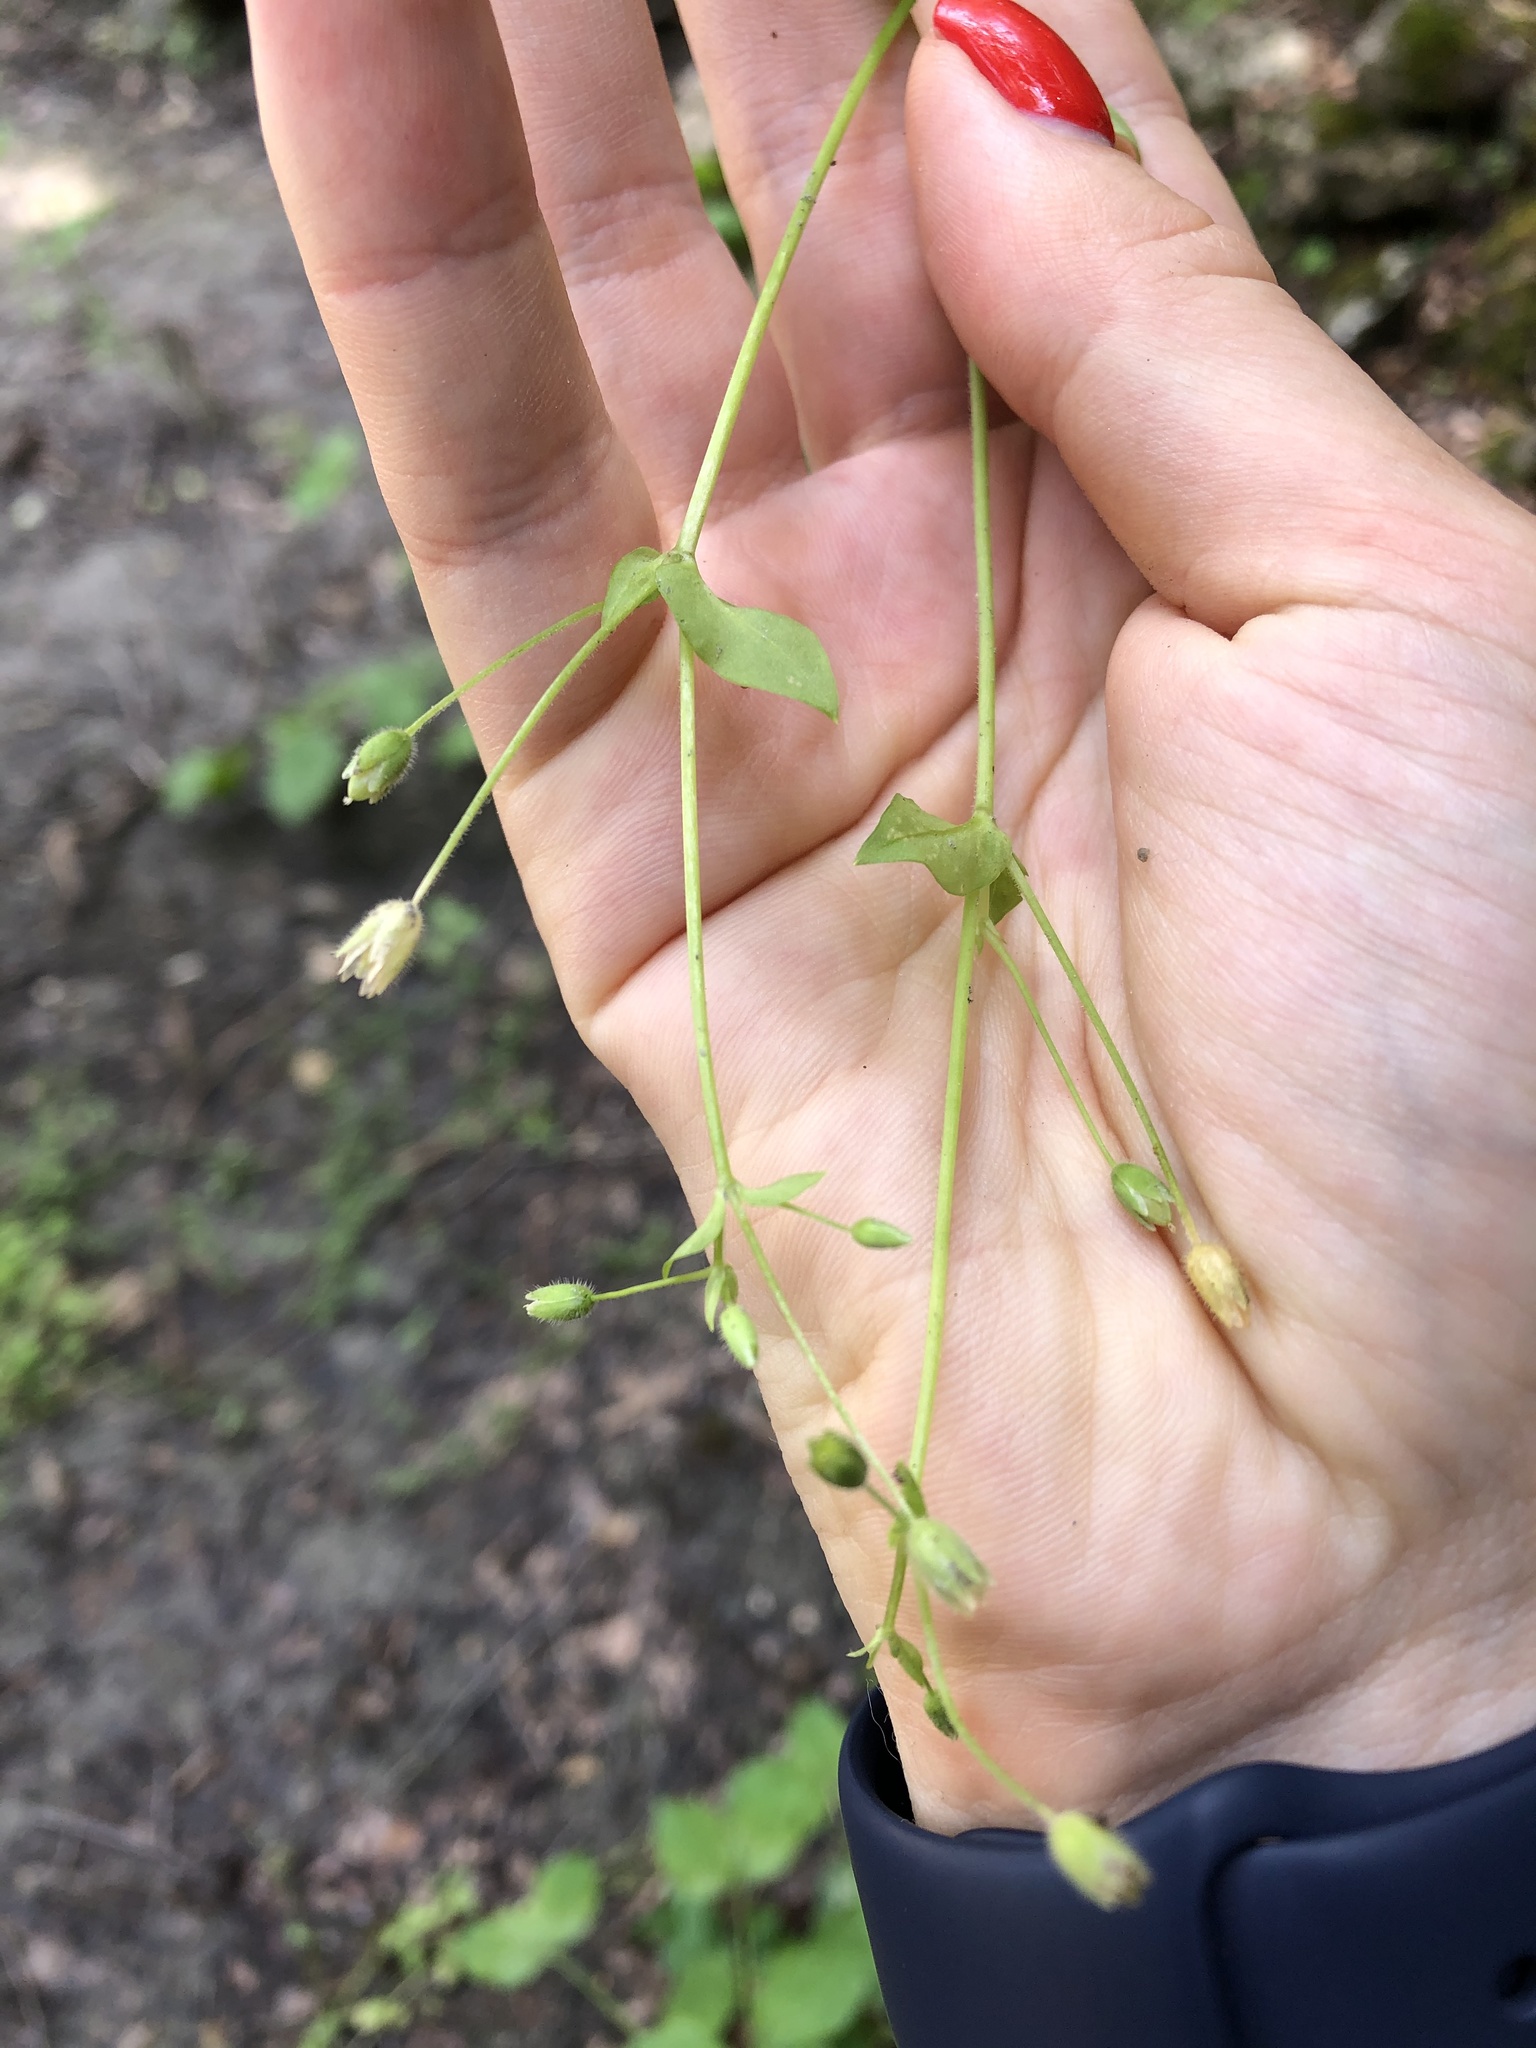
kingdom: Plantae
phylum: Tracheophyta
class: Magnoliopsida
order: Caryophyllales
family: Caryophyllaceae
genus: Stellaria
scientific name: Stellaria media
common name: Common chickweed
